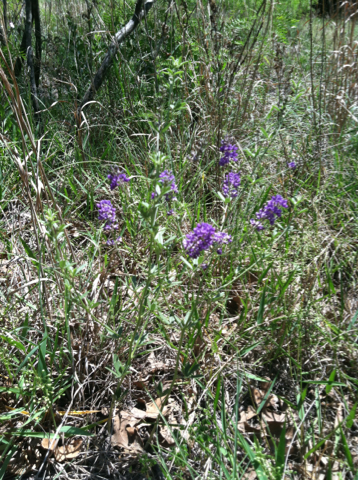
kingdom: Plantae
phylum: Tracheophyta
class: Magnoliopsida
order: Fabales
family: Fabaceae
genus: Pediomelum
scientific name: Pediomelum tenuiflorum
